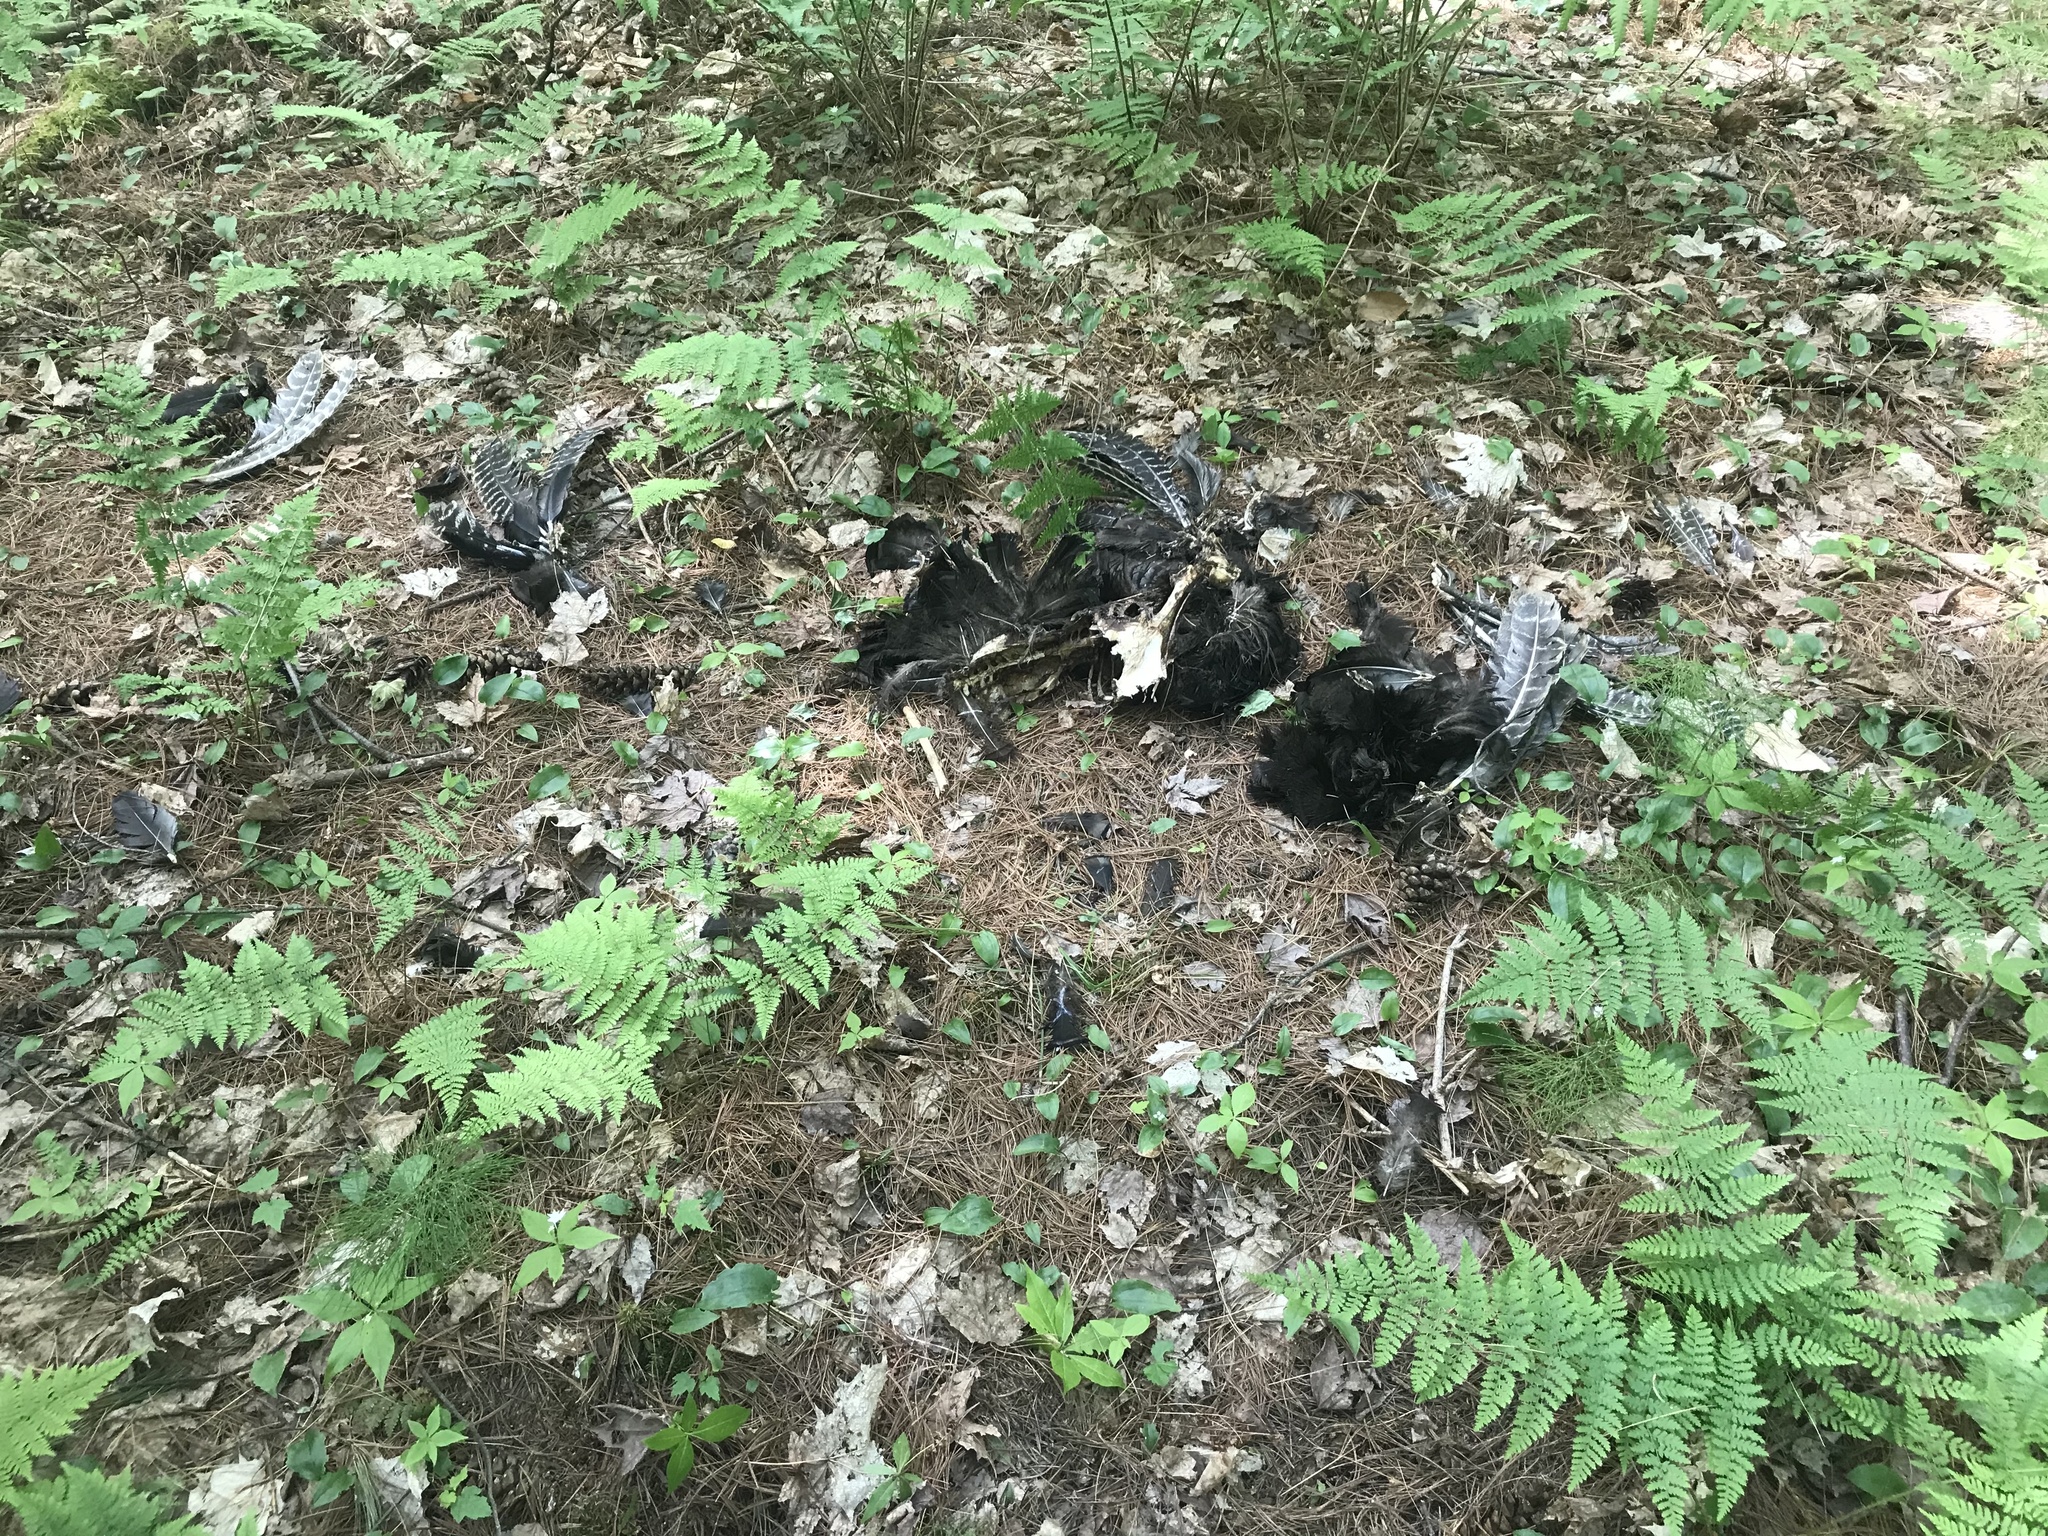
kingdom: Animalia
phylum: Chordata
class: Aves
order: Galliformes
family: Phasianidae
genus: Meleagris
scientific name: Meleagris gallopavo
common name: Wild turkey
